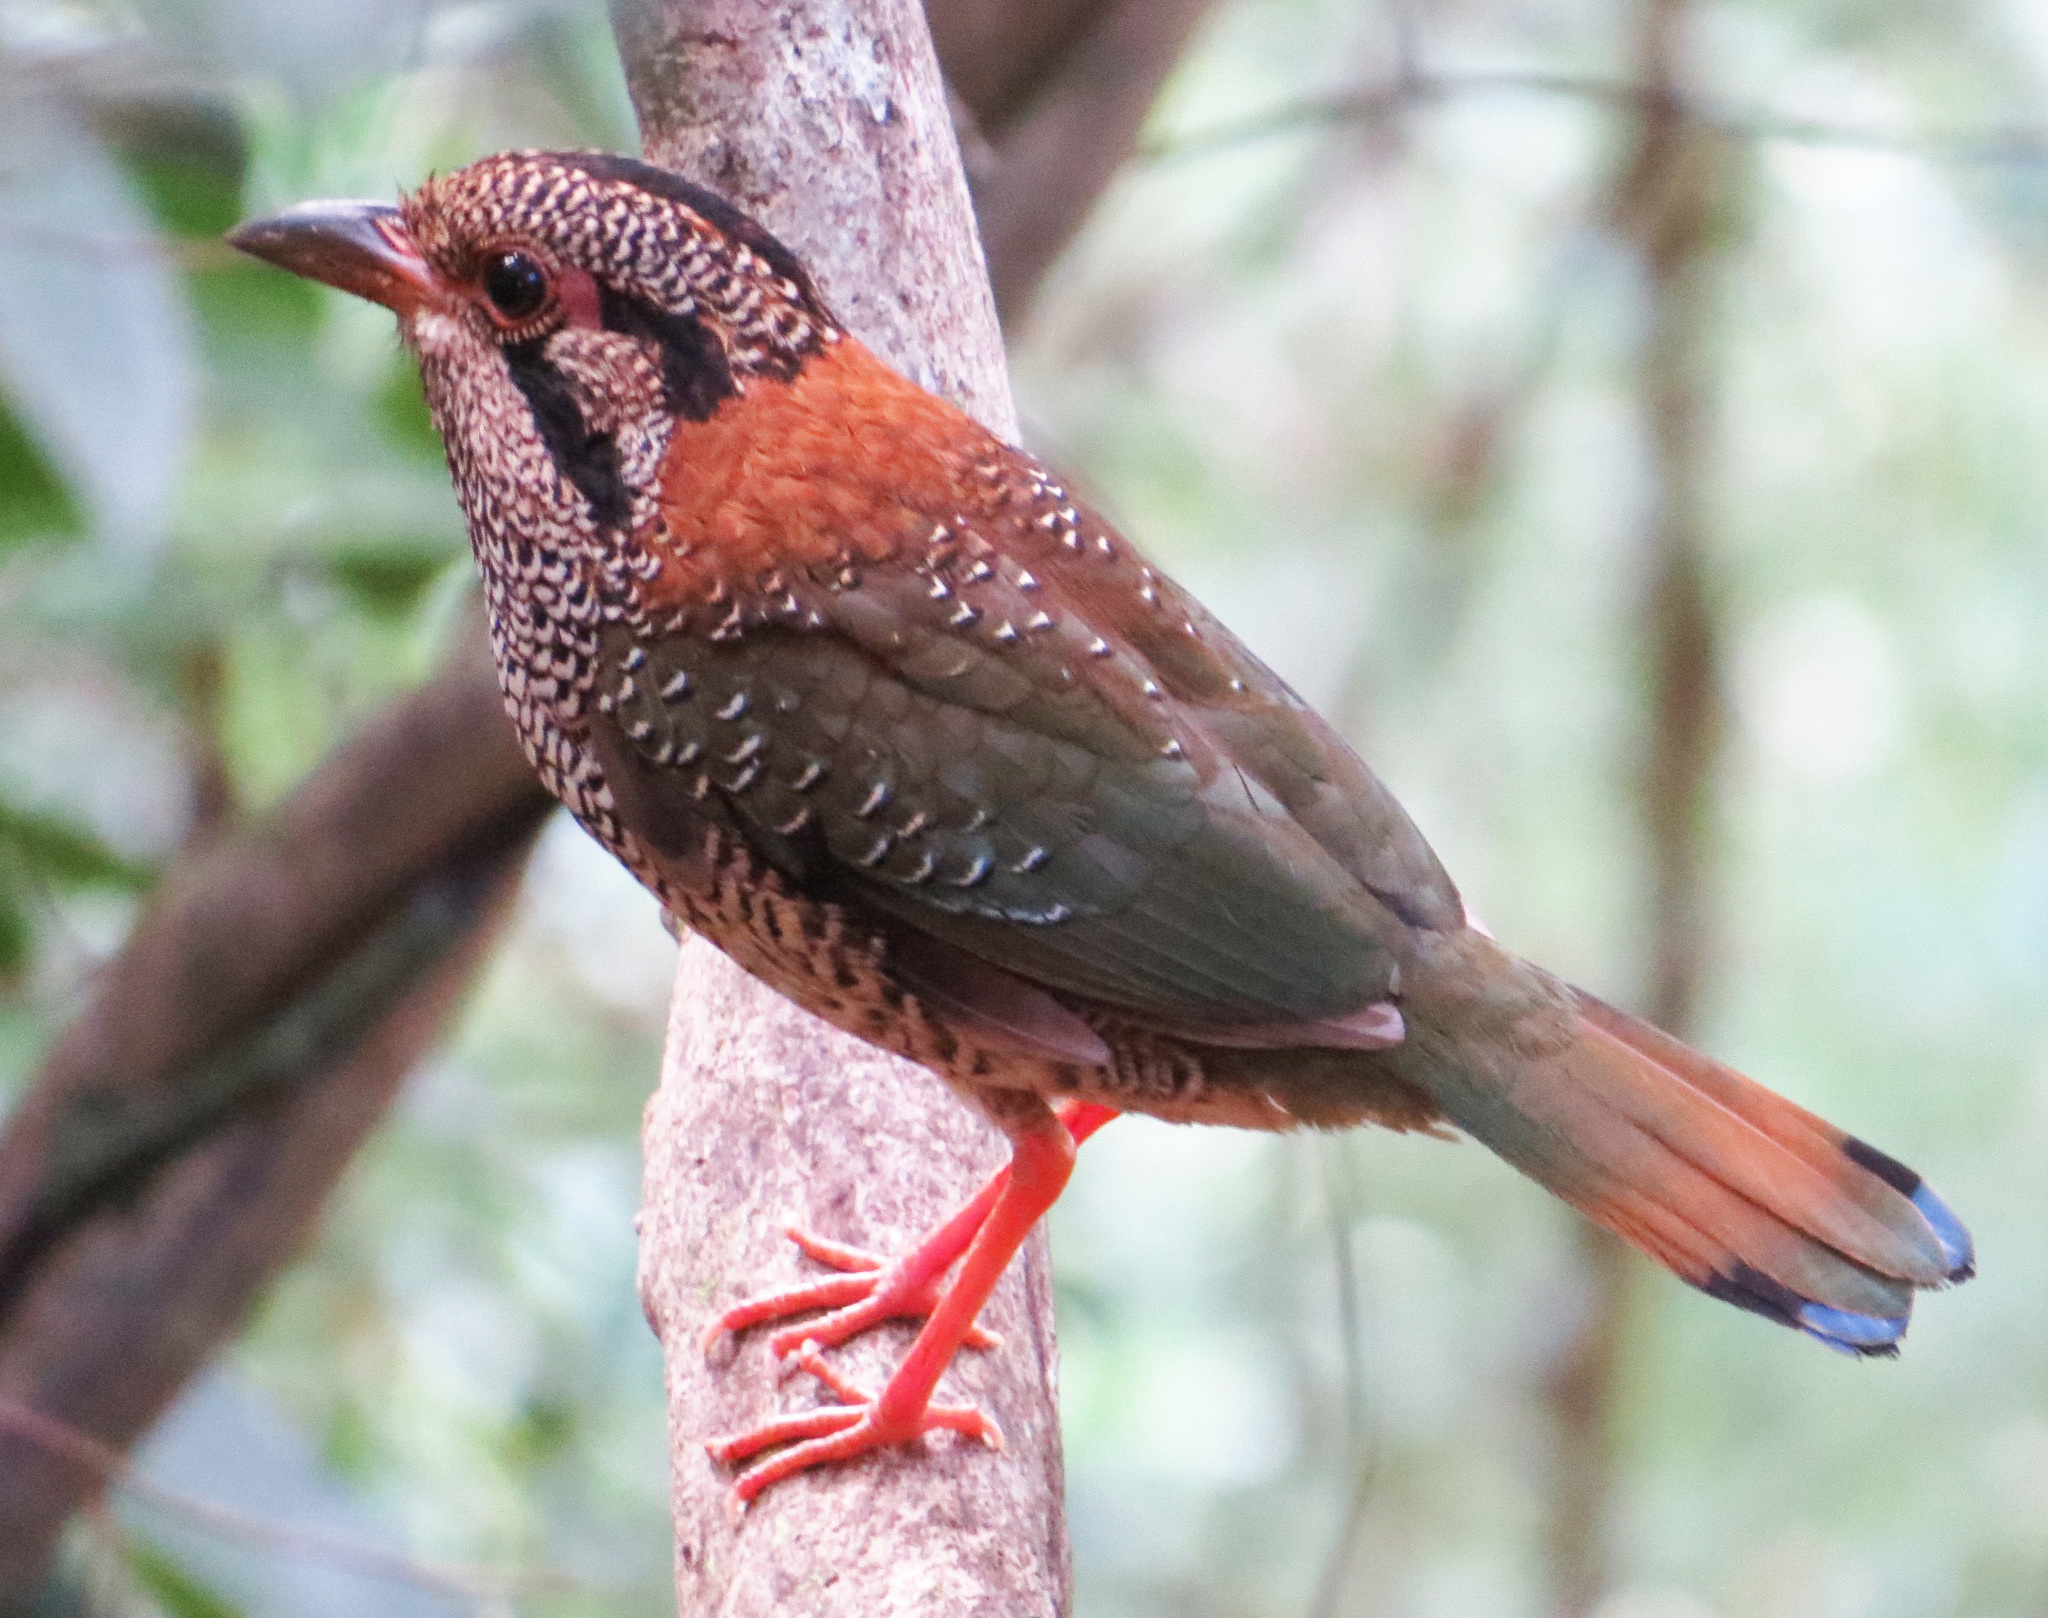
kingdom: Animalia
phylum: Chordata
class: Aves
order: Coraciiformes
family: Brachypteraciidae
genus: Geobiastes
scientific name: Geobiastes squamiger
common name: Scaly ground-roller
